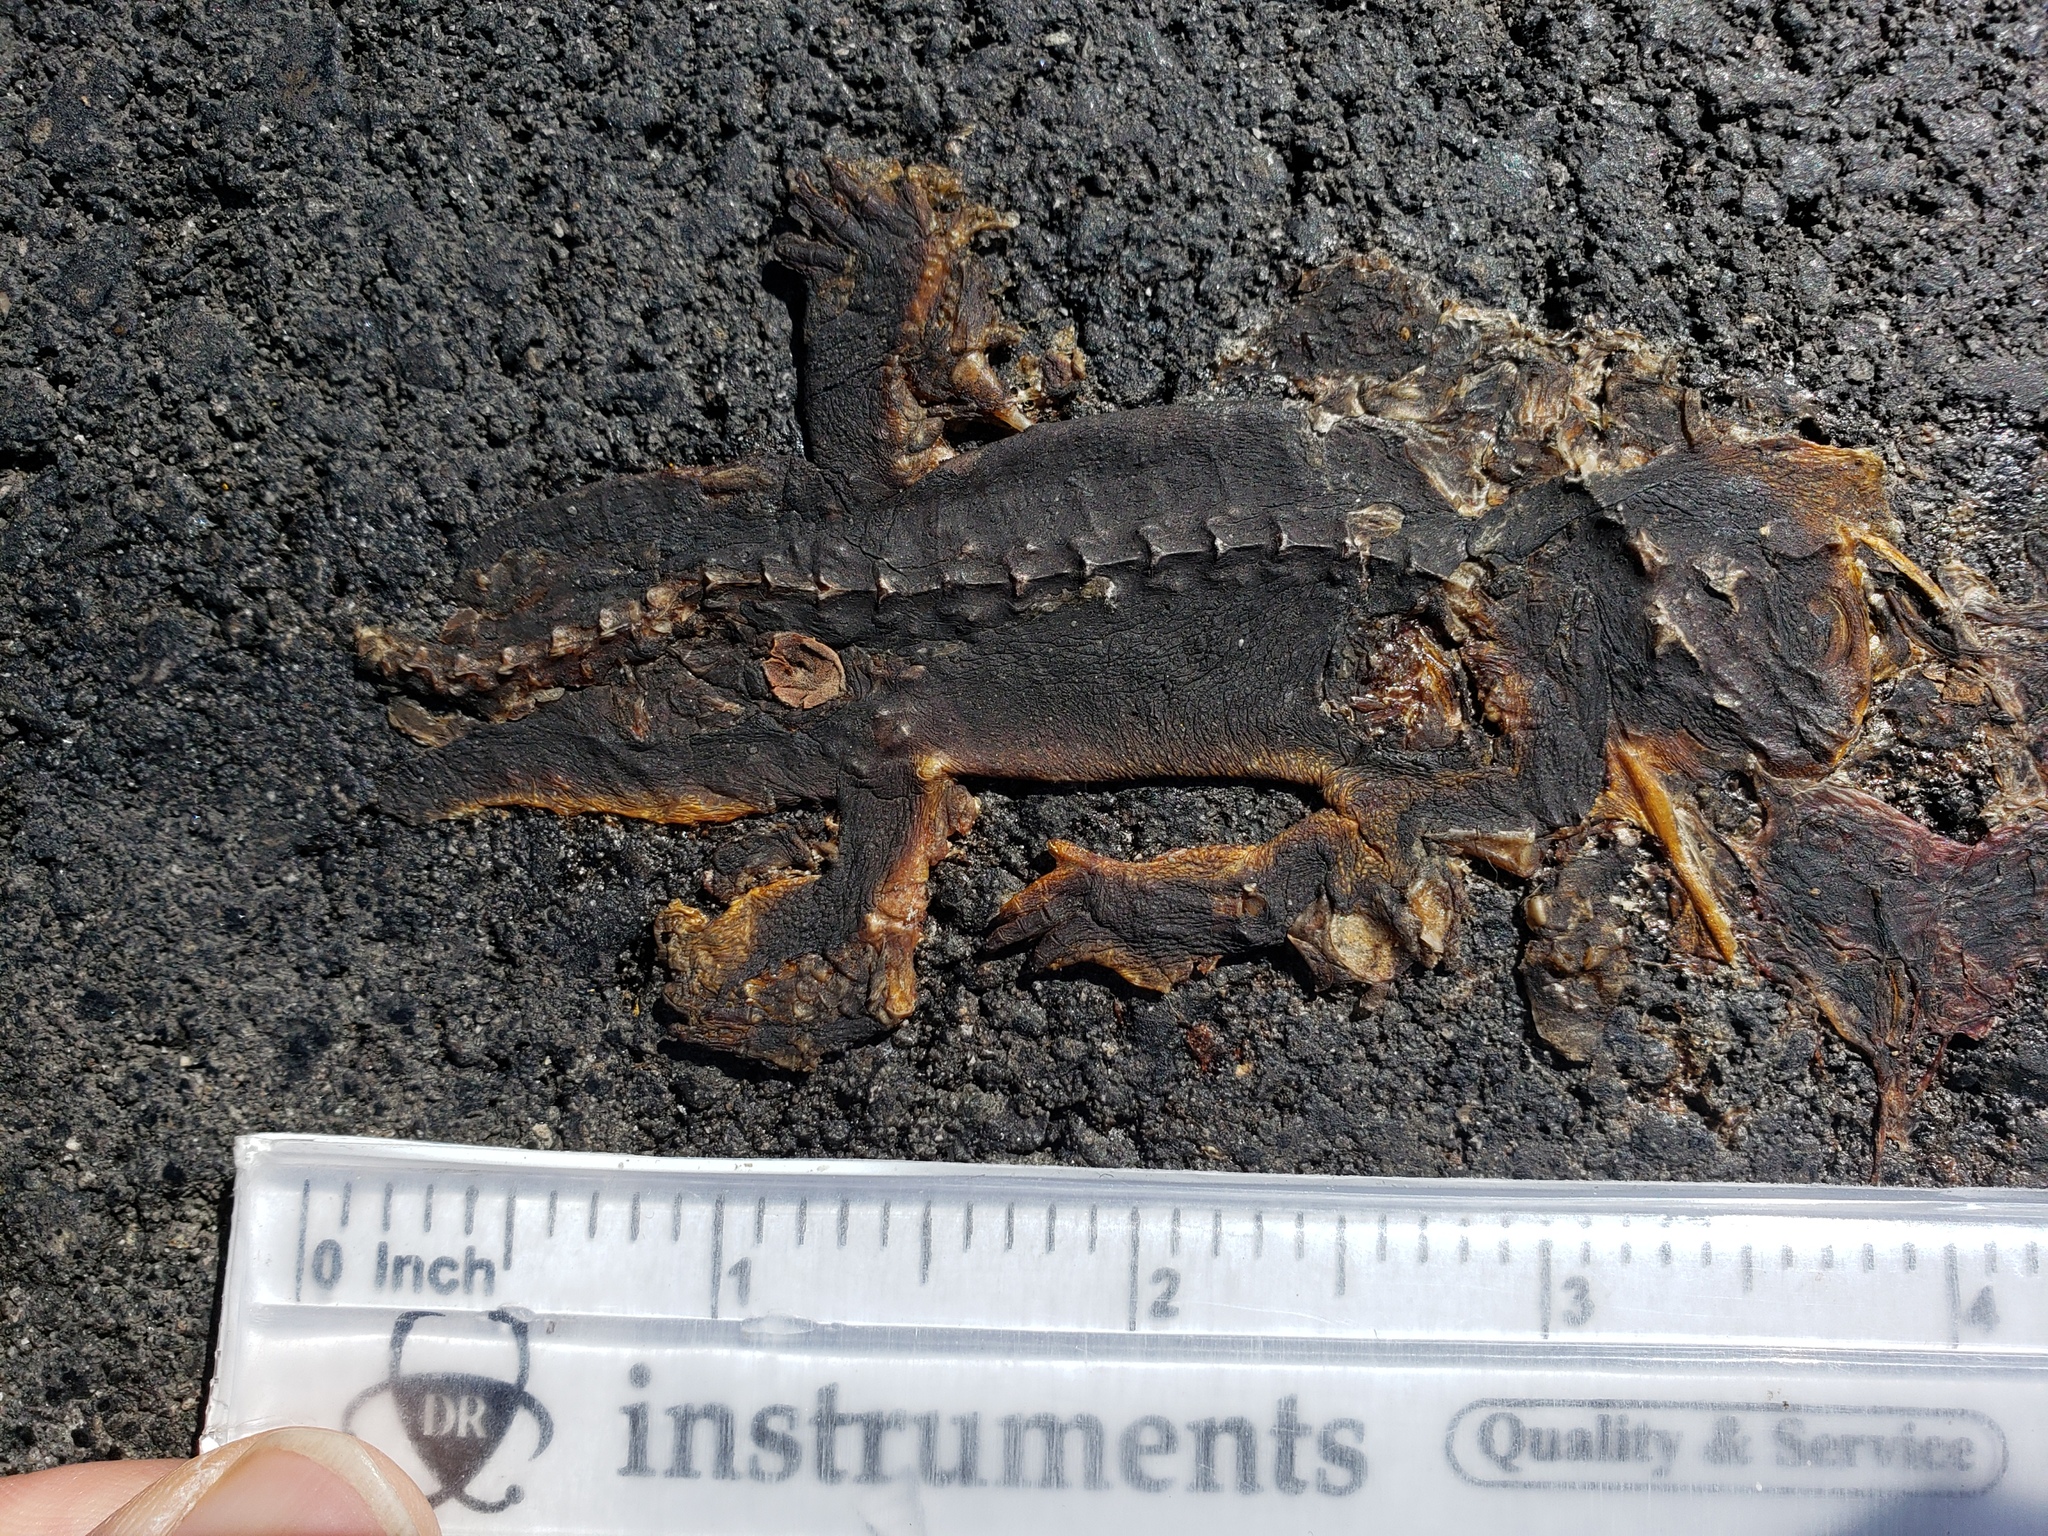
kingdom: Animalia
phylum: Chordata
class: Amphibia
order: Caudata
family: Salamandridae
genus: Taricha
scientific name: Taricha
